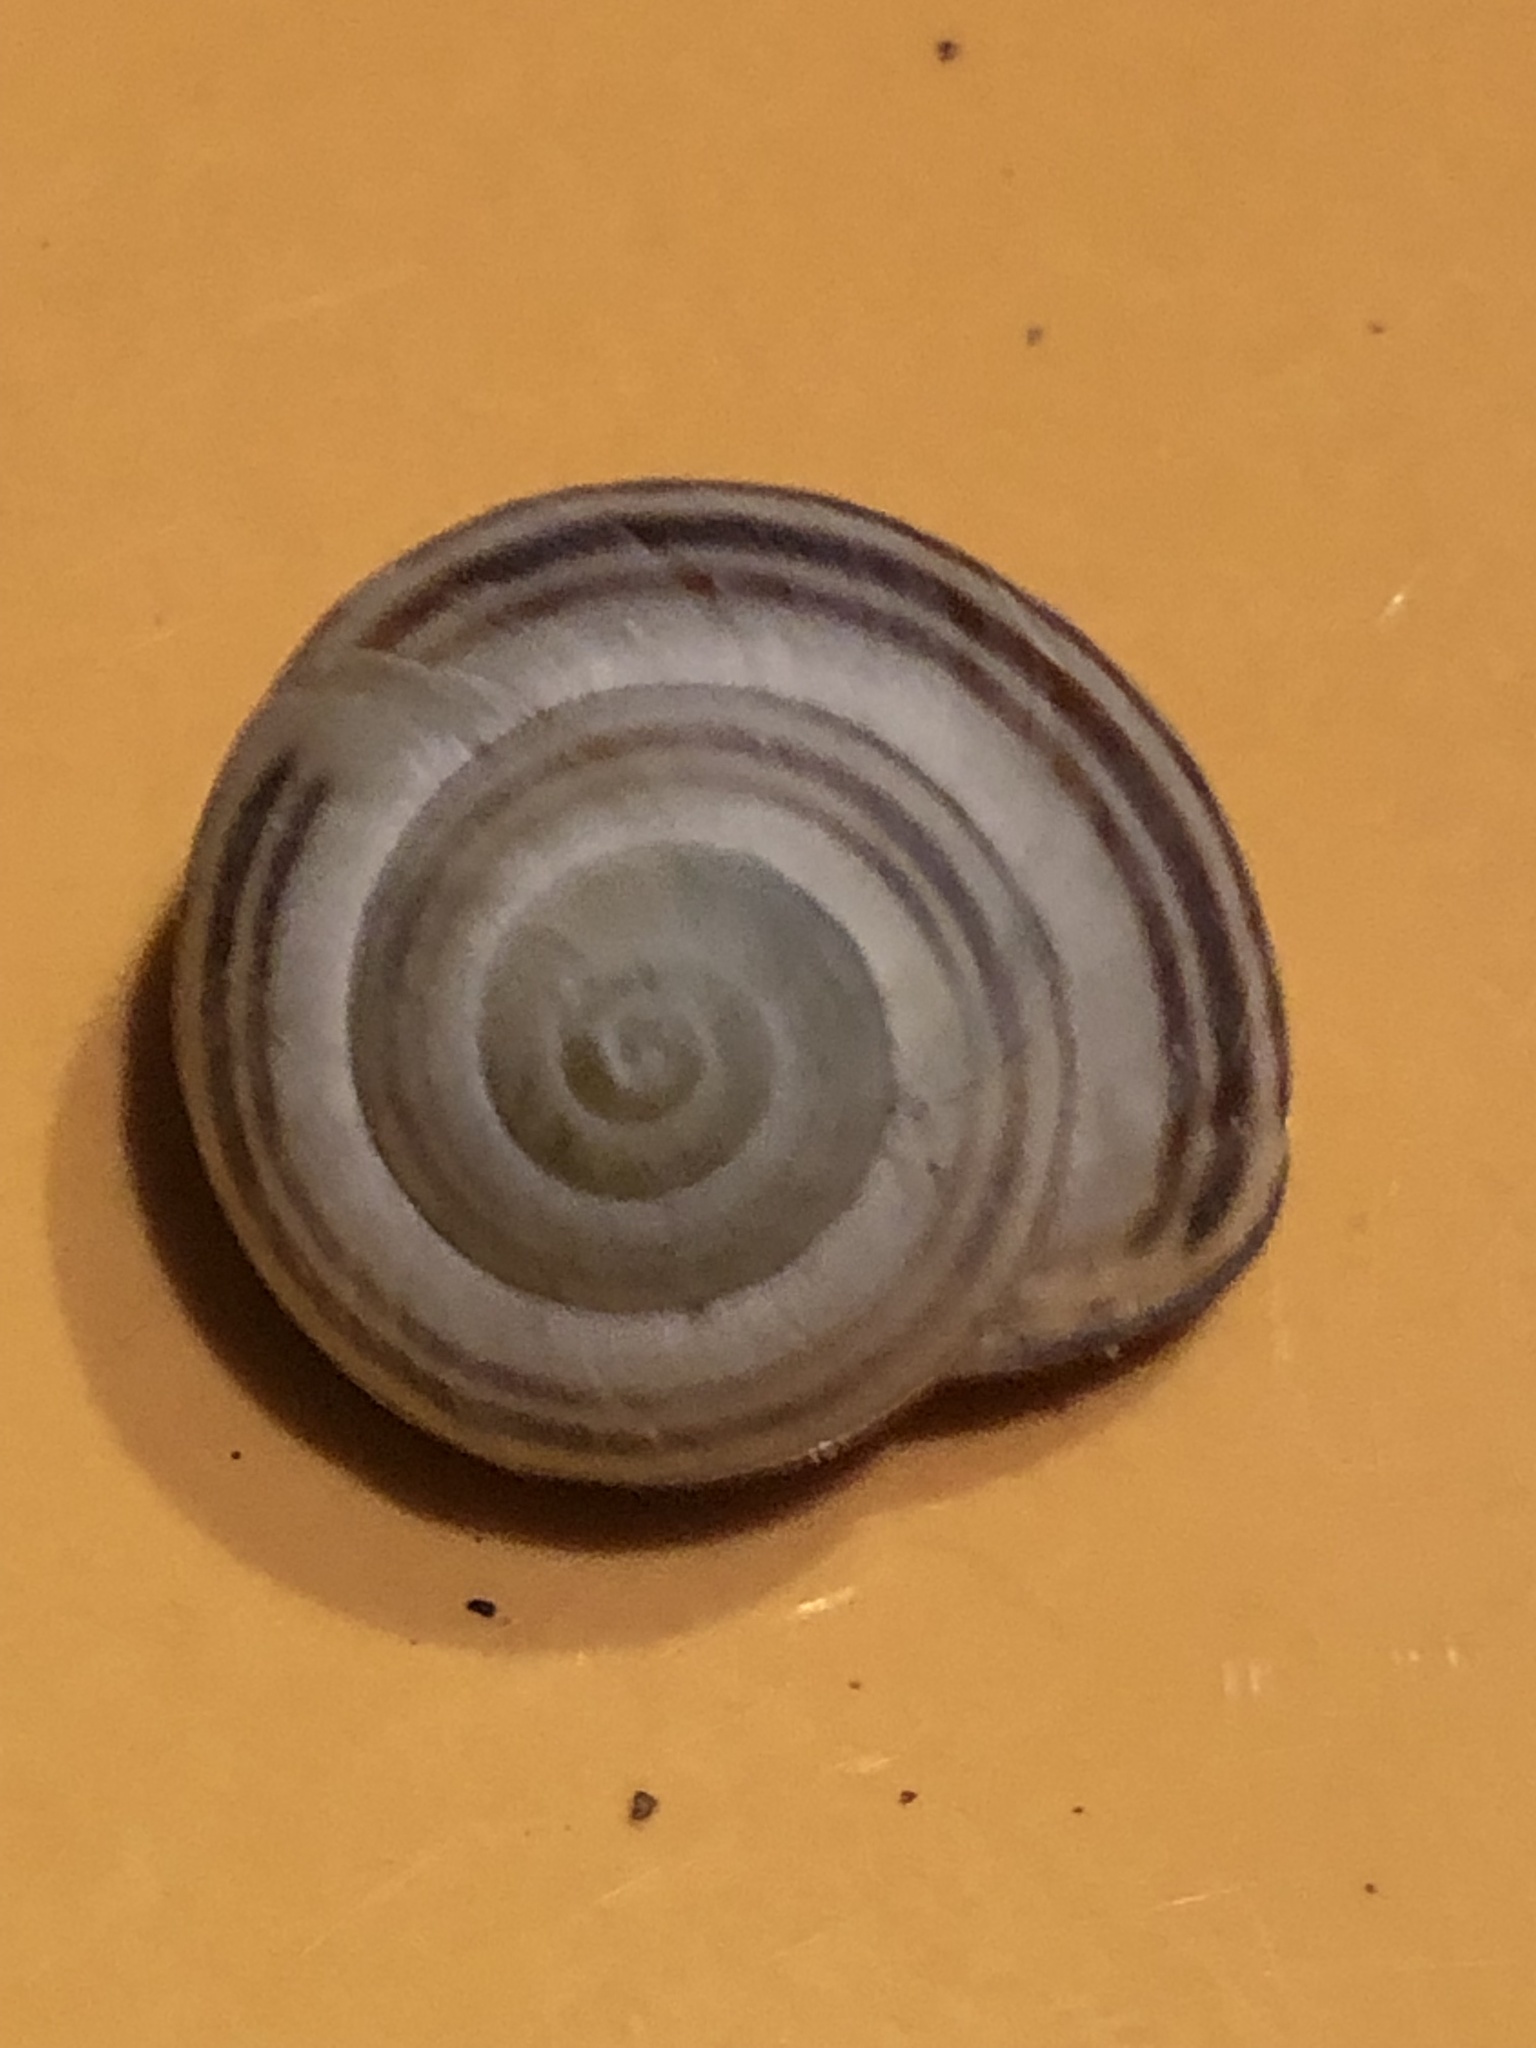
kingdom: Animalia
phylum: Mollusca
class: Gastropoda
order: Stylommatophora
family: Helicidae
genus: Cepaea
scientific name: Cepaea nemoralis
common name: Grovesnail
